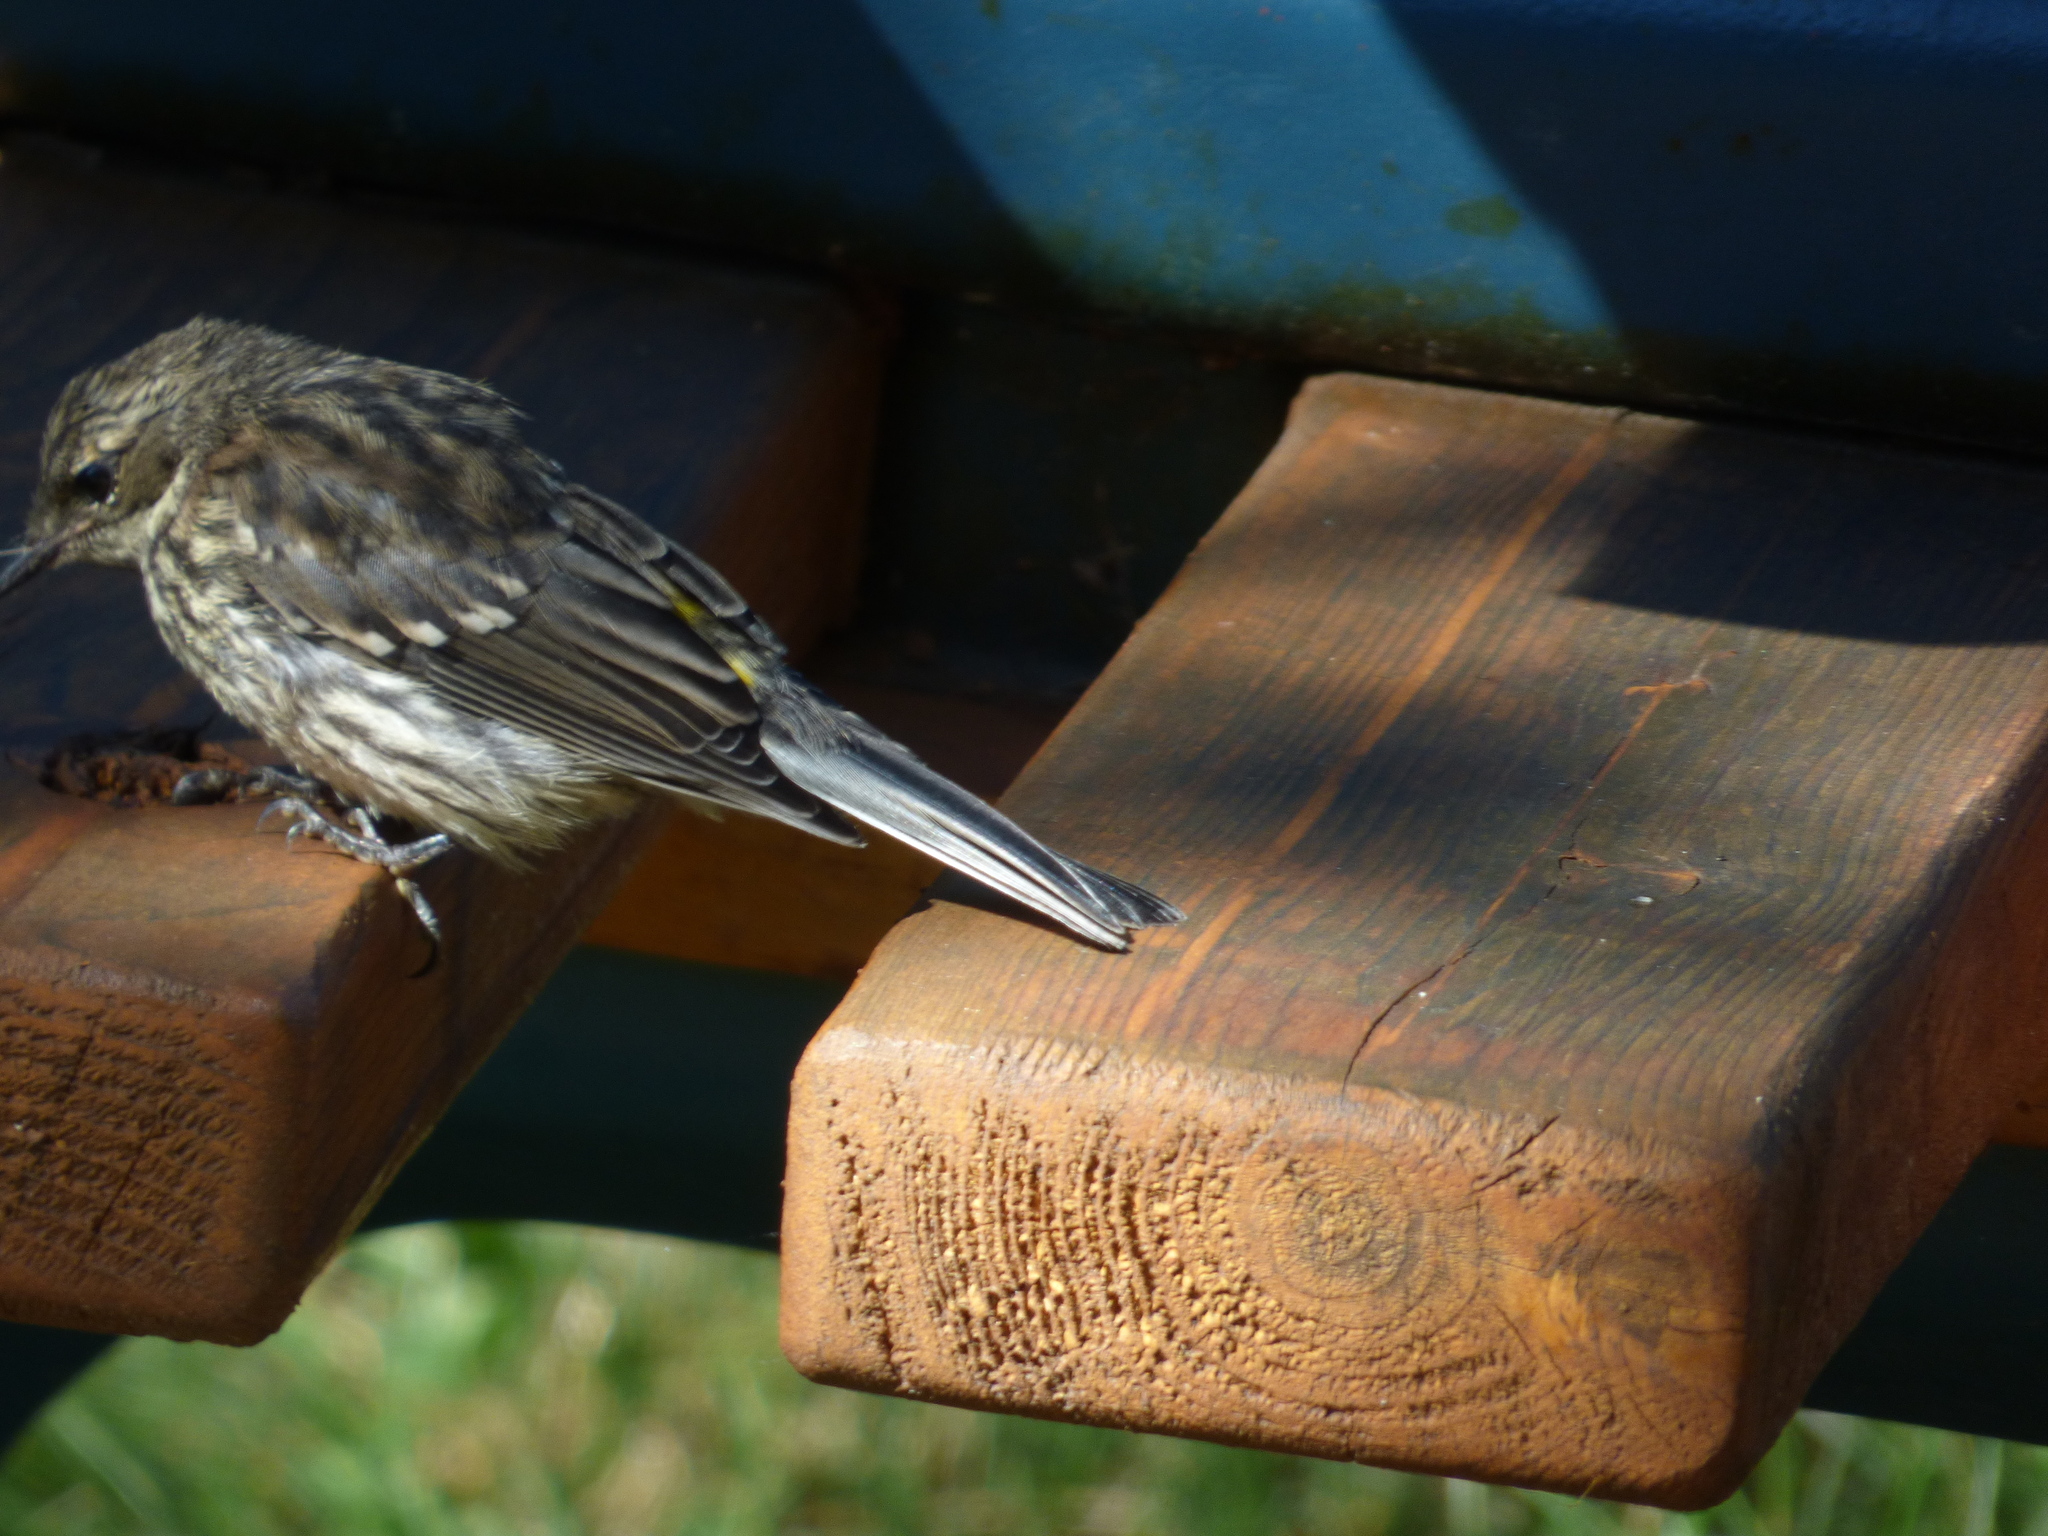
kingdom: Animalia
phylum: Chordata
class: Aves
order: Passeriformes
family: Parulidae
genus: Setophaga
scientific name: Setophaga coronata
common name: Myrtle warbler
